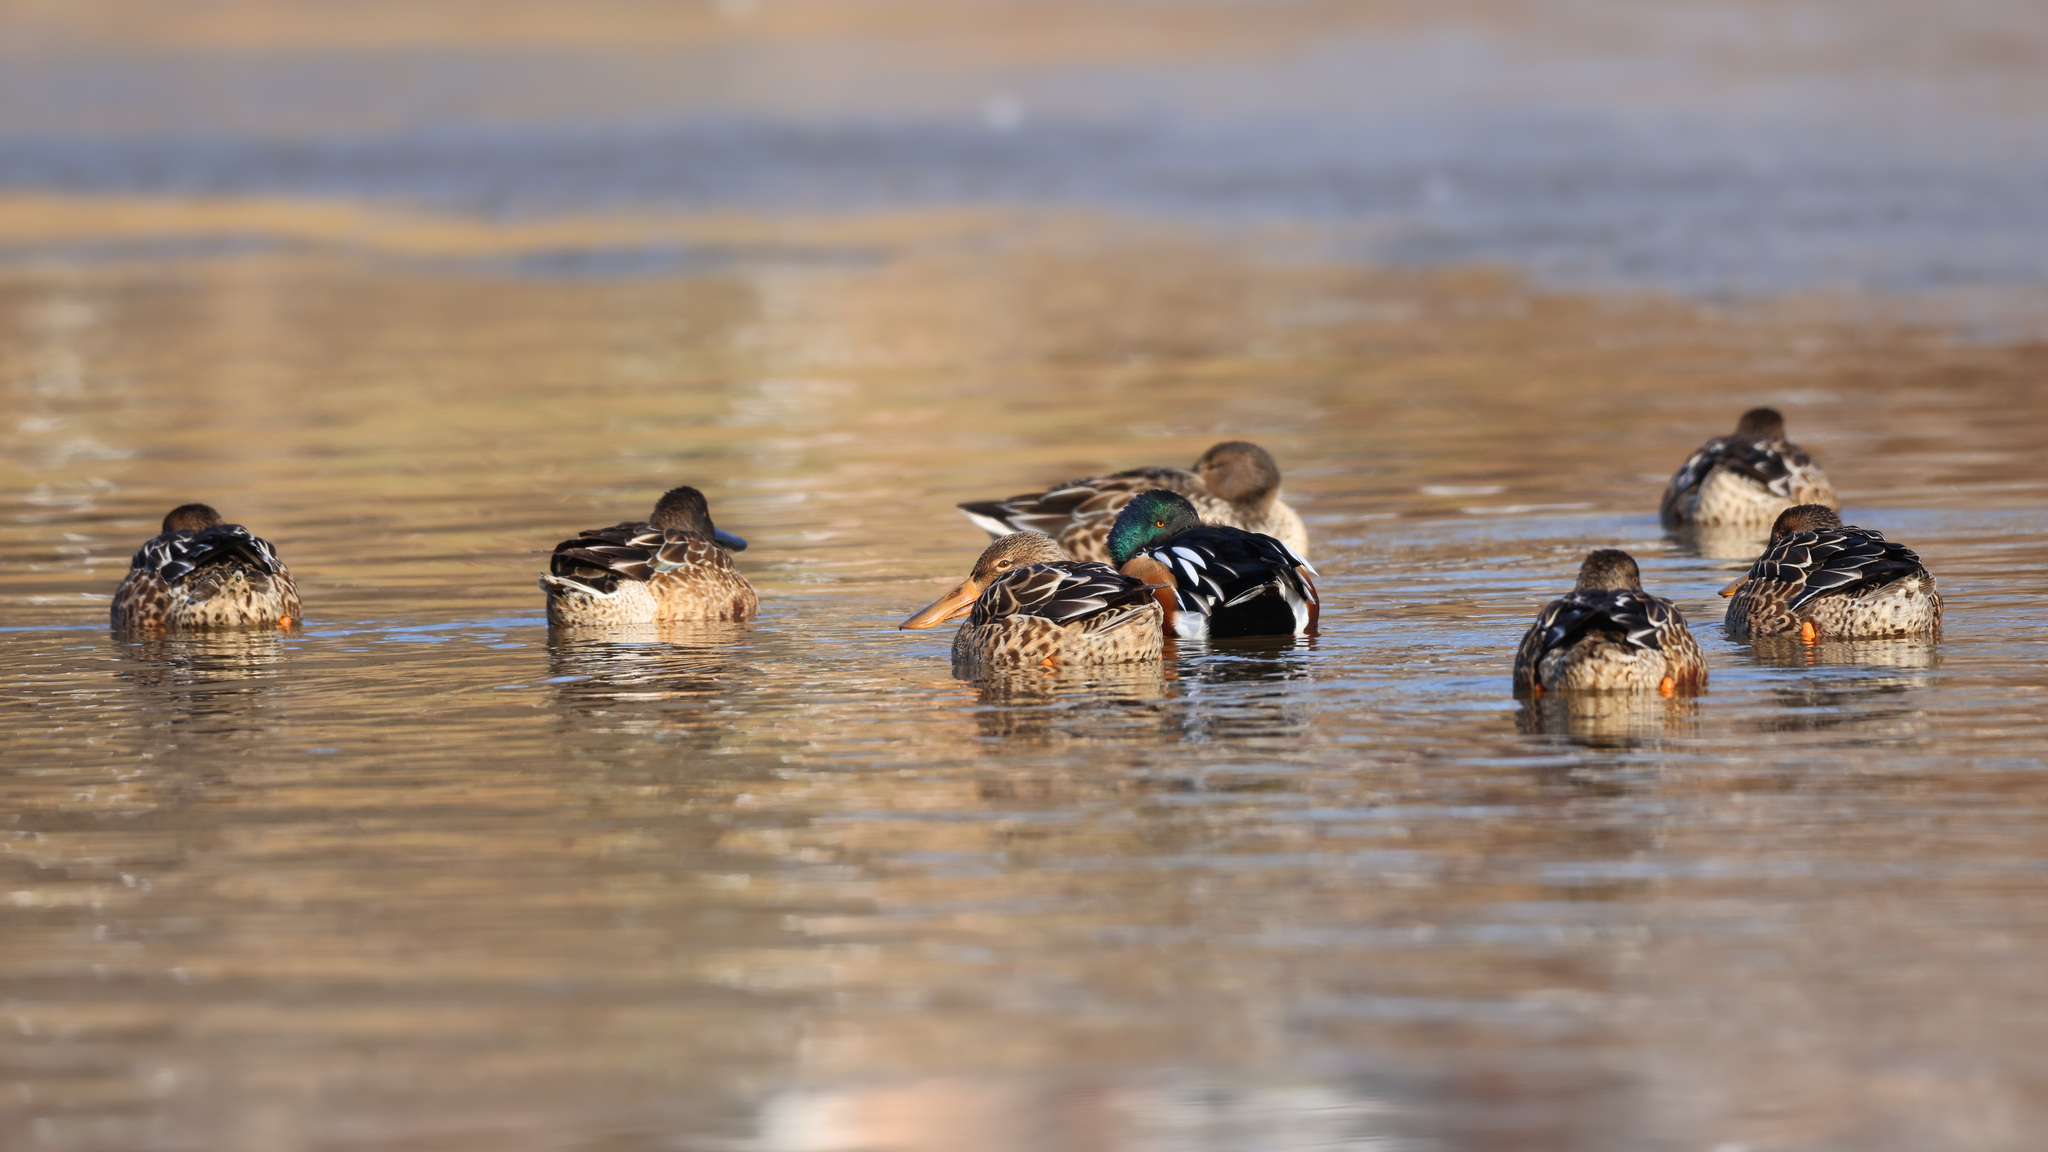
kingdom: Animalia
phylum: Chordata
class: Aves
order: Anseriformes
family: Anatidae
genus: Spatula
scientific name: Spatula clypeata
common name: Northern shoveler
